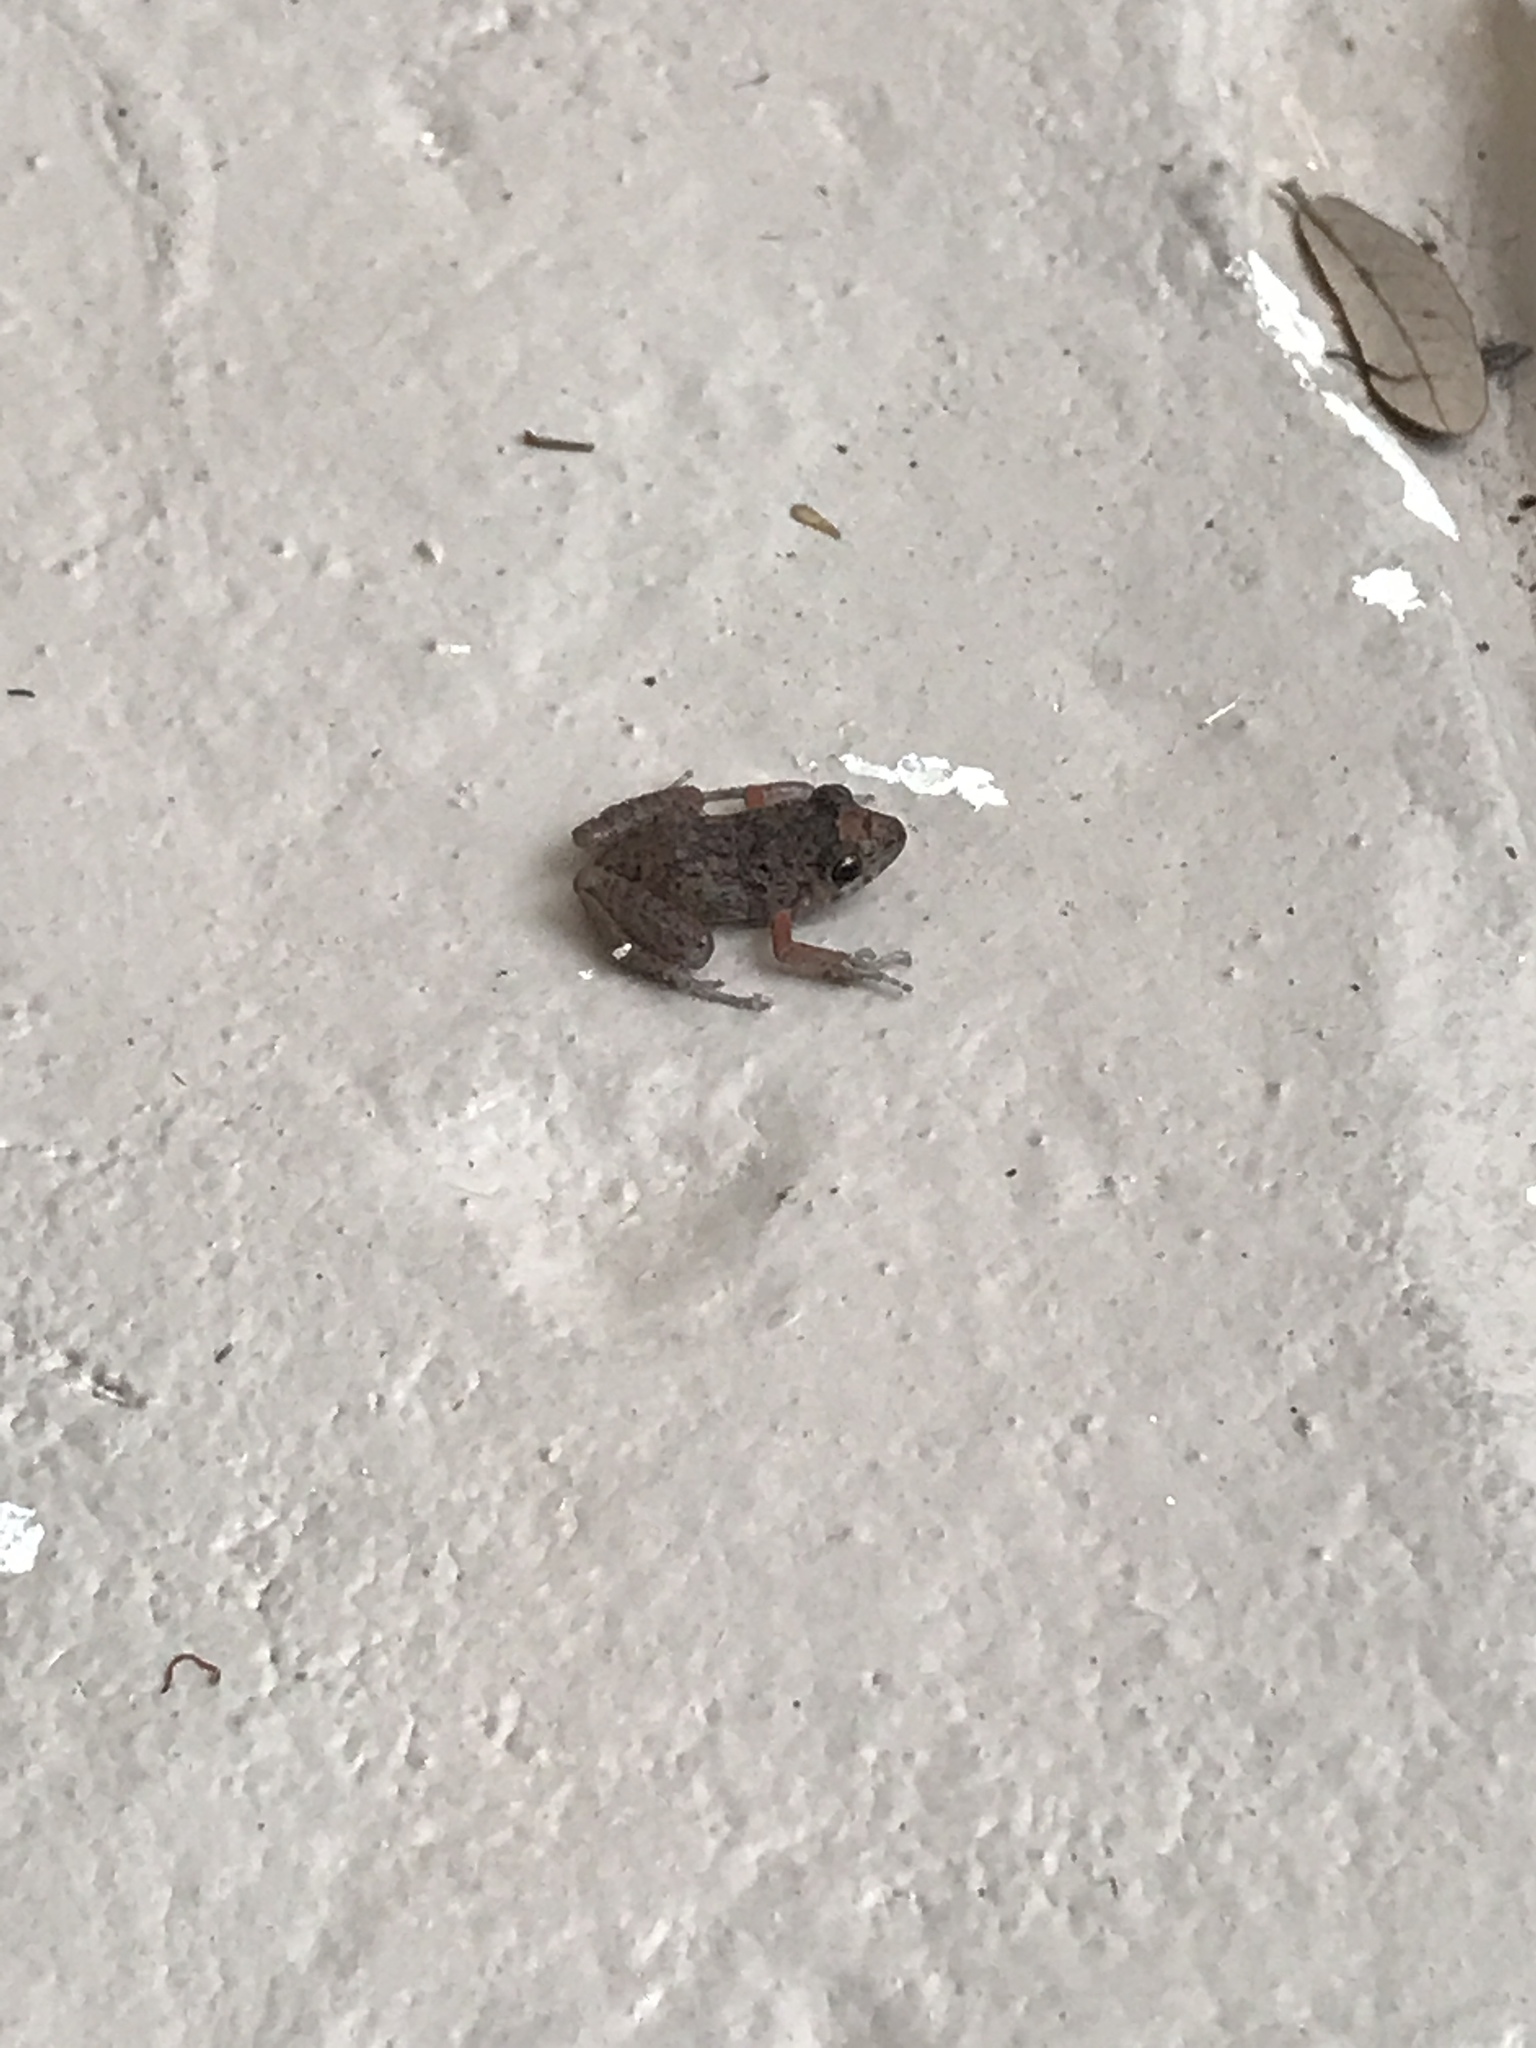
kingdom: Animalia
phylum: Chordata
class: Amphibia
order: Anura
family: Eleutherodactylidae
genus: Eleutherodactylus
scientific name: Eleutherodactylus planirostris
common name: Greenhouse frog
